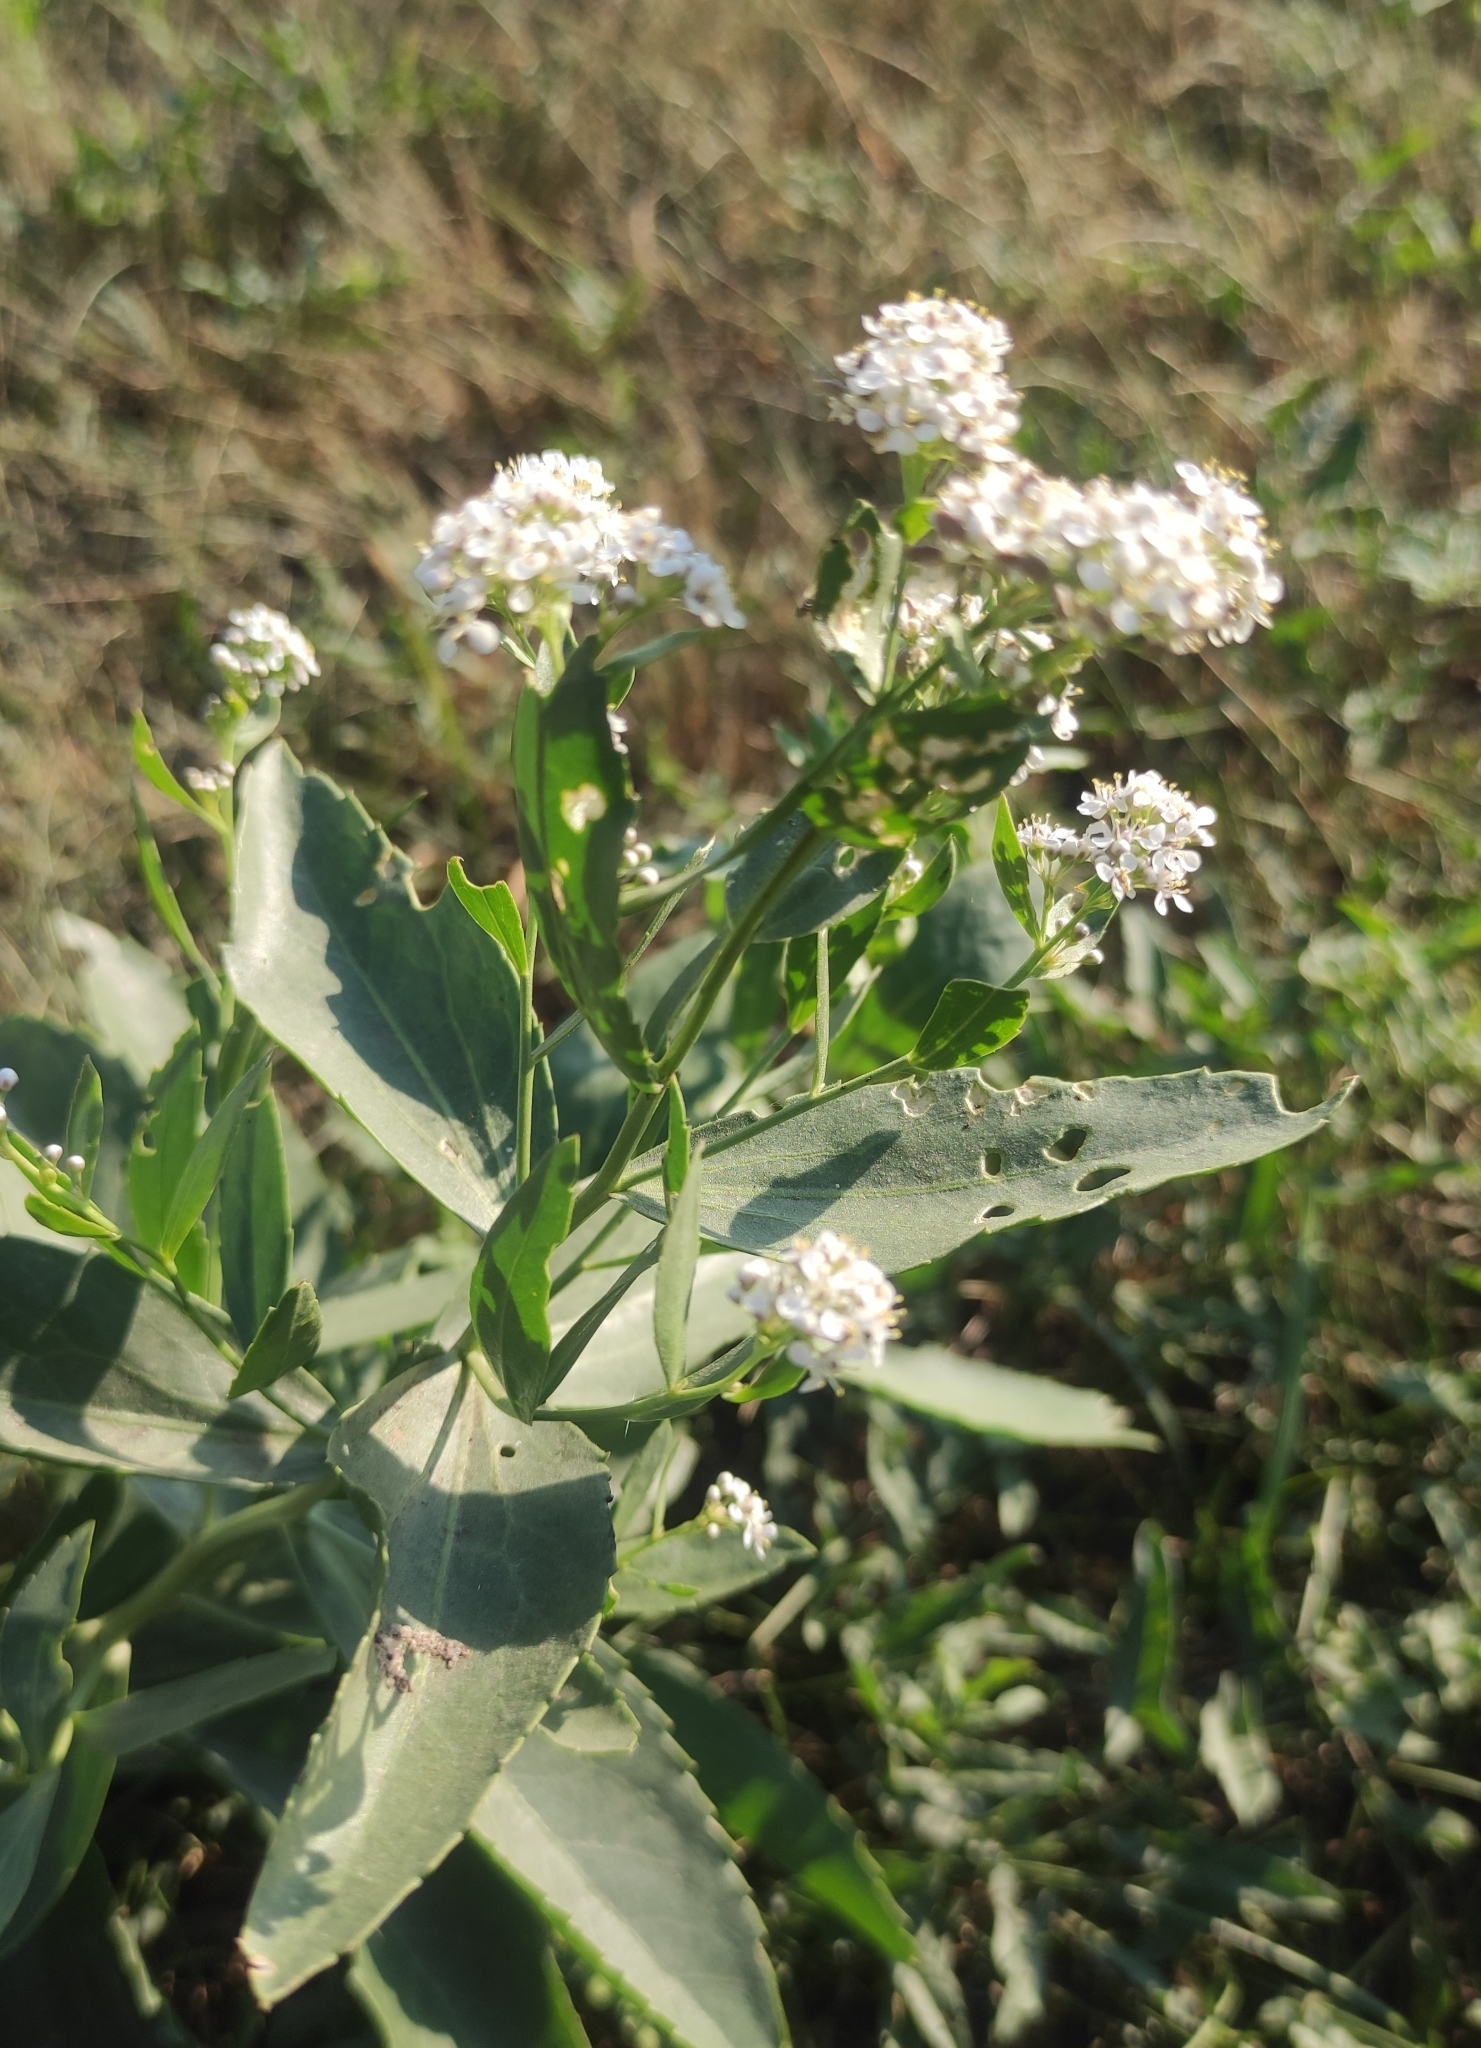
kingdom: Plantae
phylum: Tracheophyta
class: Magnoliopsida
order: Brassicales
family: Brassicaceae
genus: Lepidium
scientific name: Lepidium latifolium
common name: Dittander
